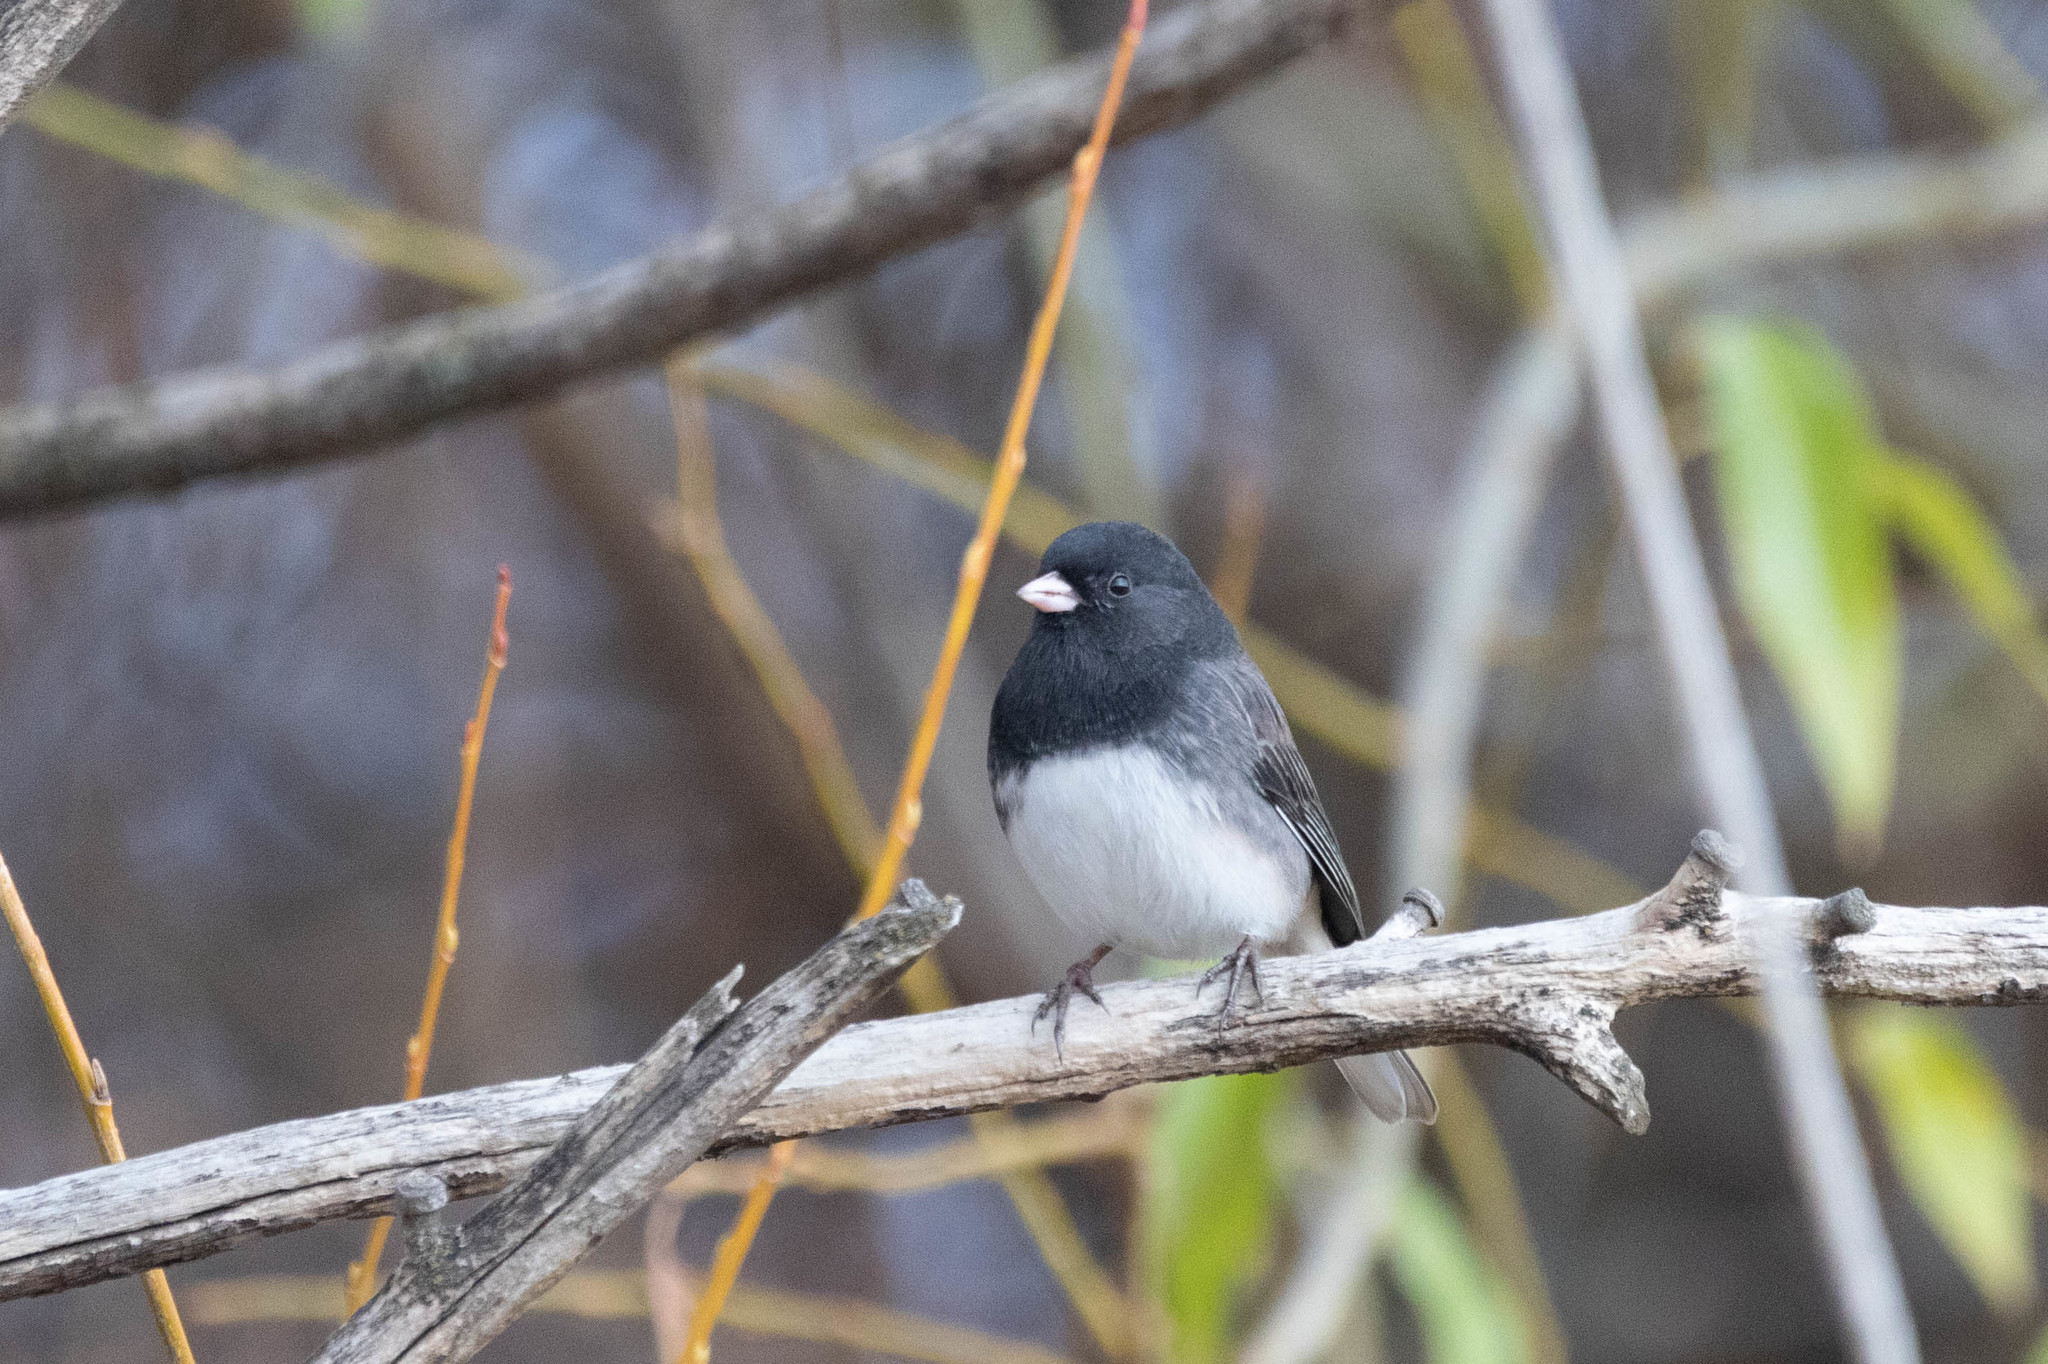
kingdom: Animalia
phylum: Chordata
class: Aves
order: Passeriformes
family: Passerellidae
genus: Junco
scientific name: Junco hyemalis
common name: Dark-eyed junco
